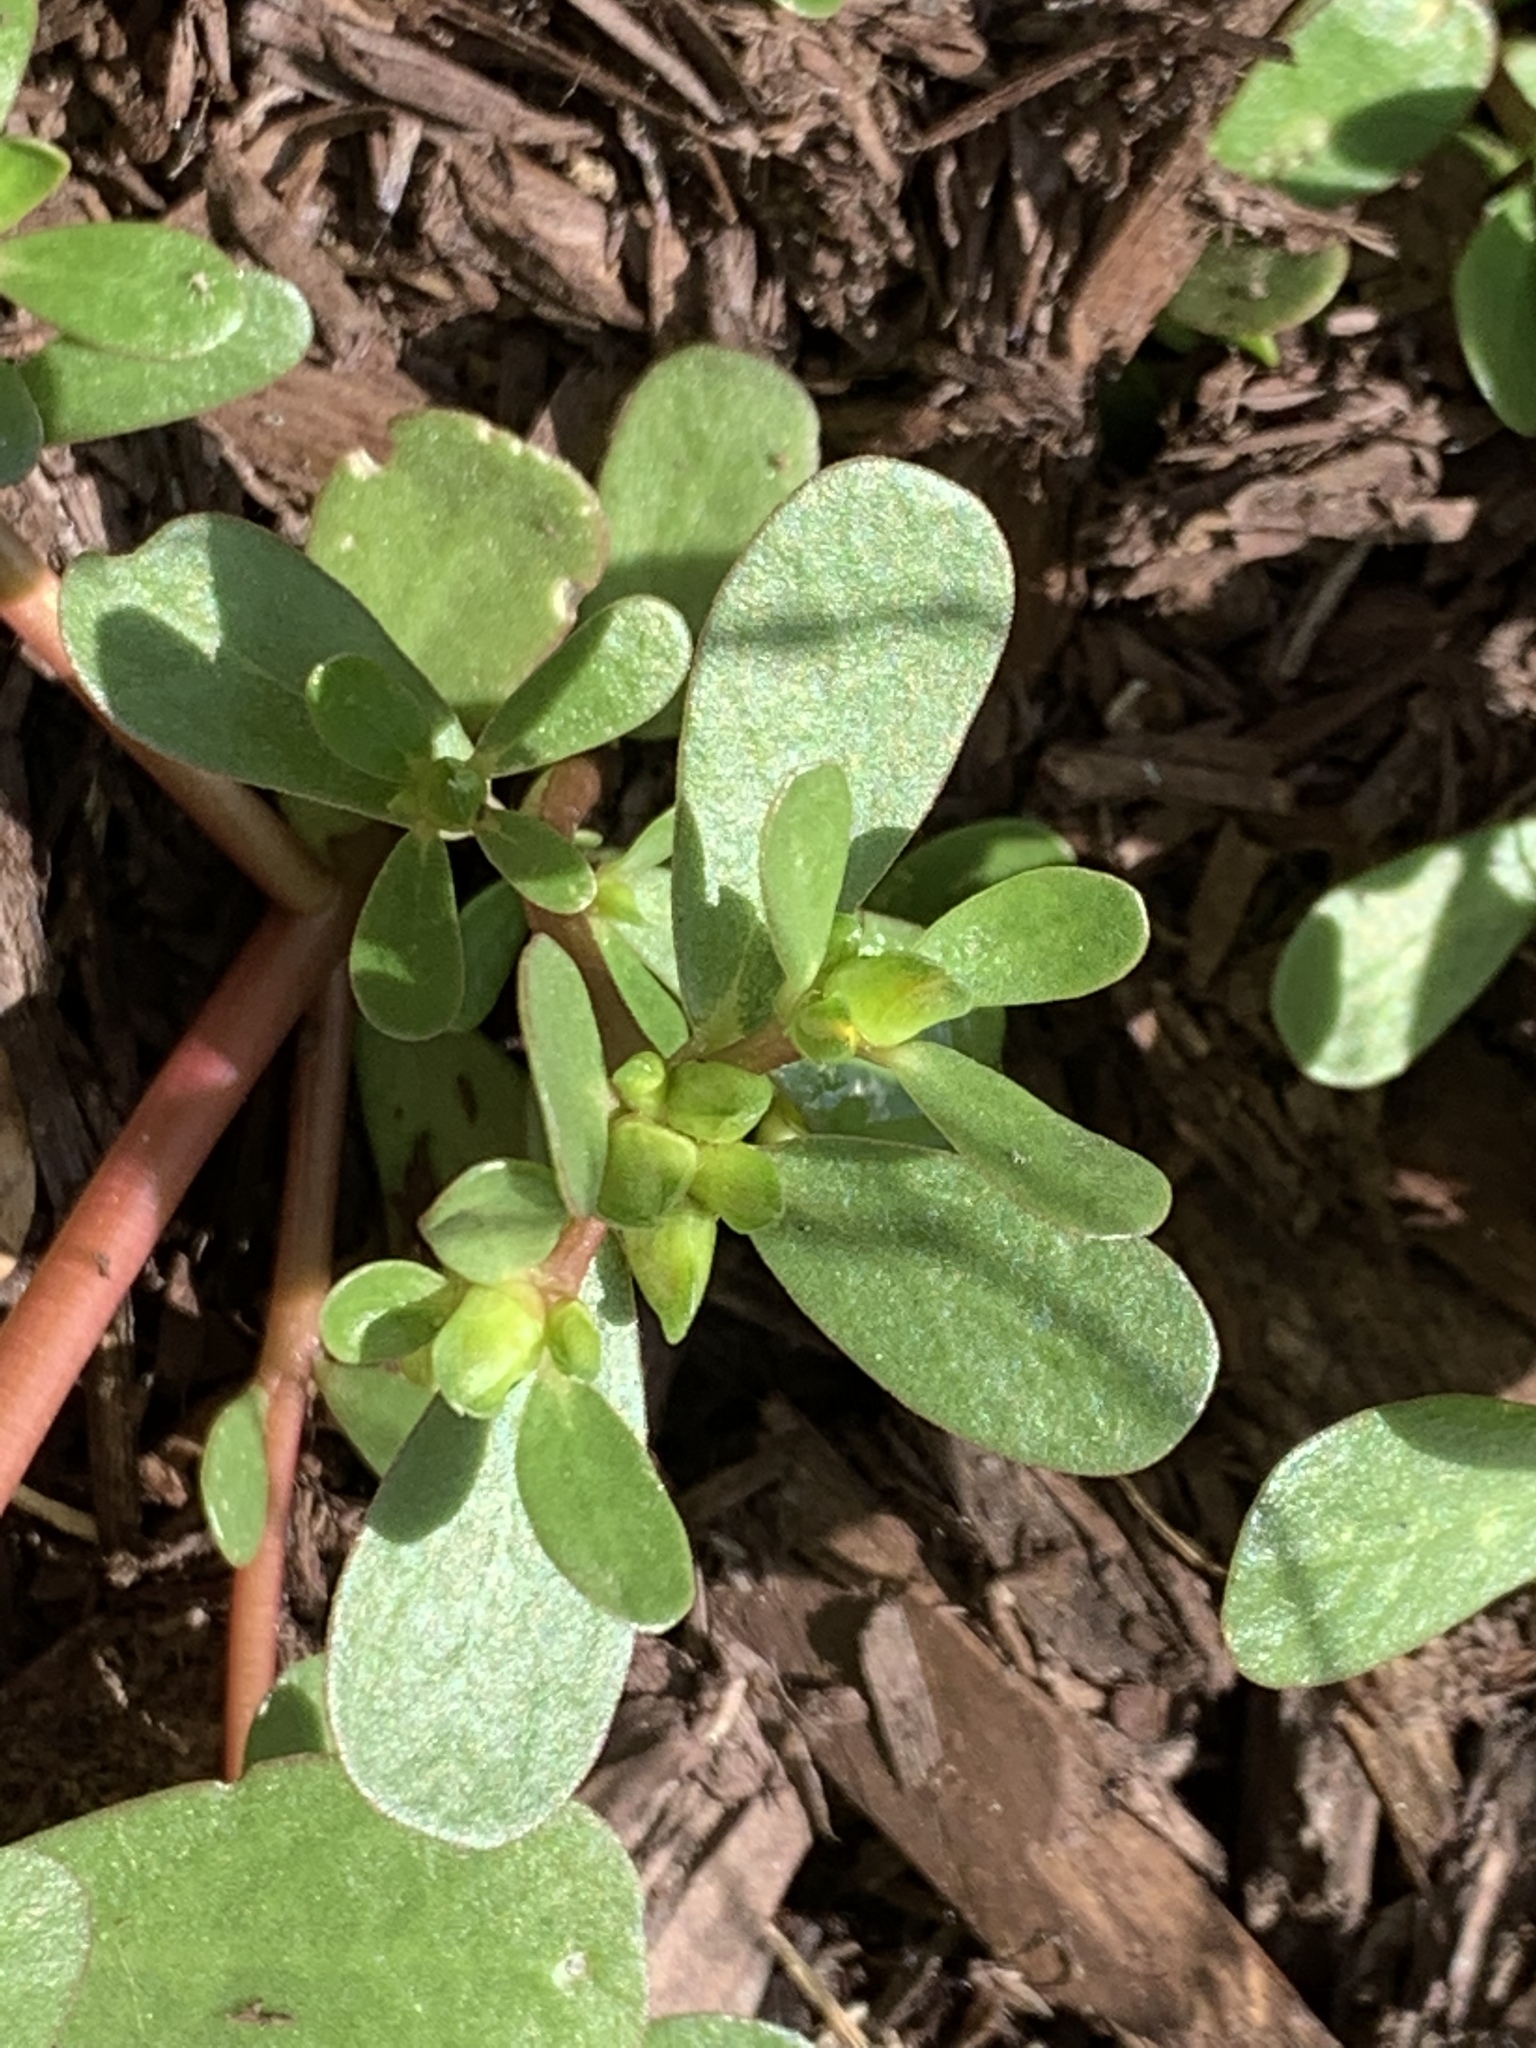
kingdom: Plantae
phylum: Tracheophyta
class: Magnoliopsida
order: Caryophyllales
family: Portulacaceae
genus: Portulaca
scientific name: Portulaca oleracea
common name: Common purslane
